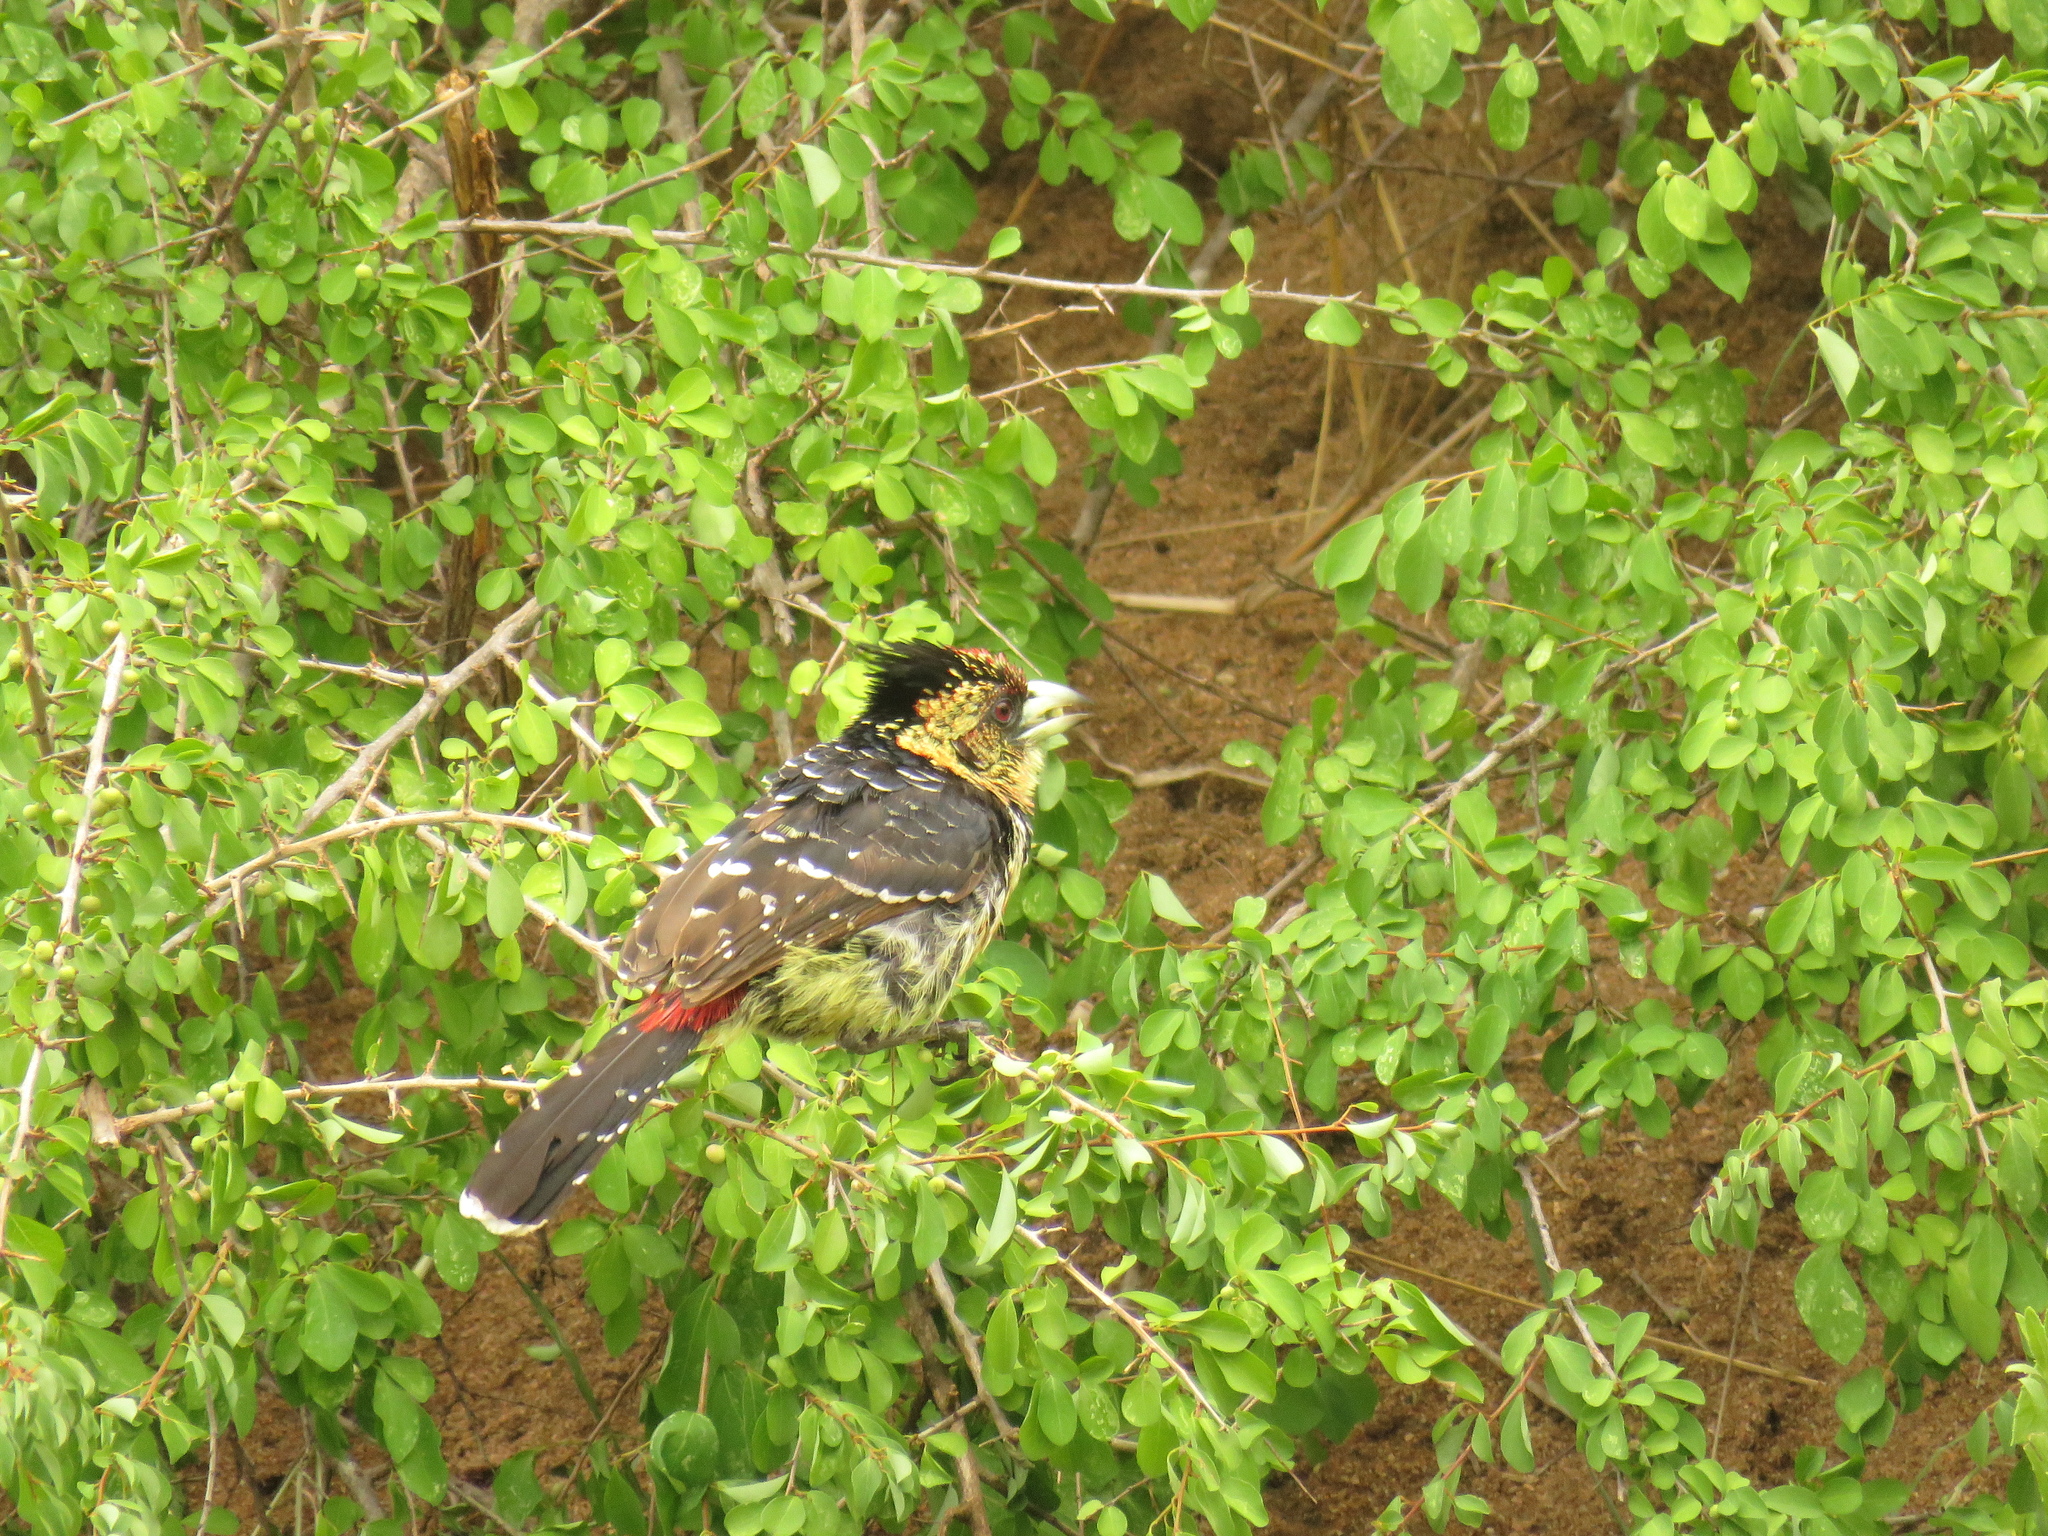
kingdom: Animalia
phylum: Chordata
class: Aves
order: Piciformes
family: Lybiidae
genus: Trachyphonus
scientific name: Trachyphonus vaillantii
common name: Crested barbet
